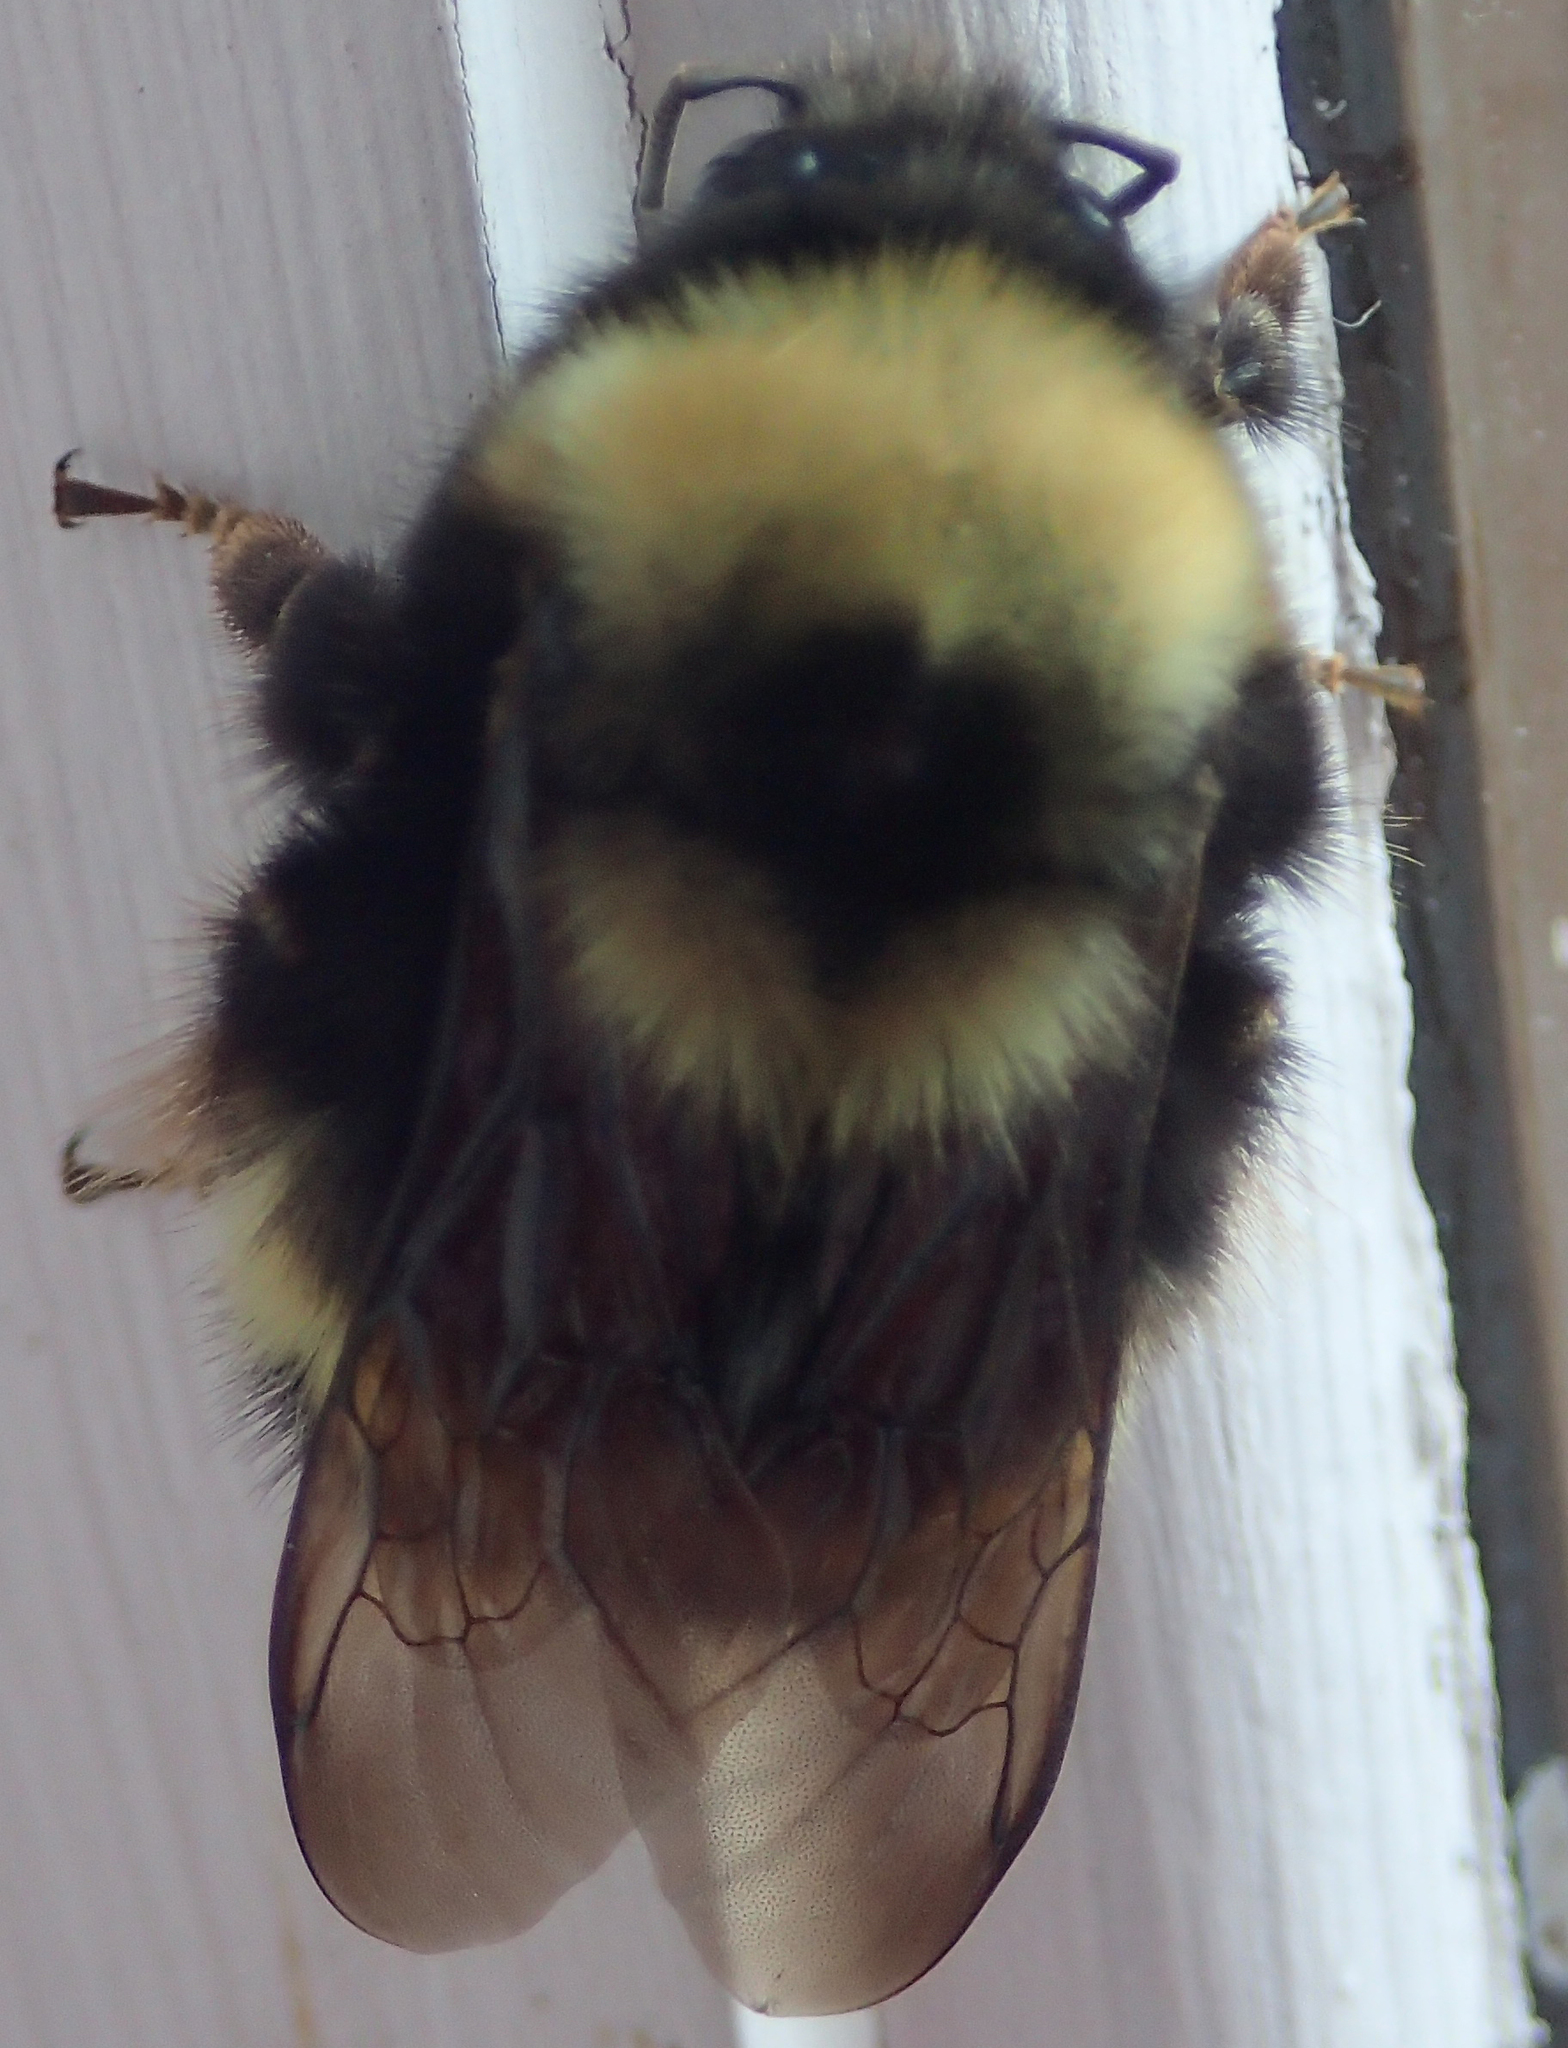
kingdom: Animalia
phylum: Arthropoda
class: Insecta
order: Hymenoptera
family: Apidae
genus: Bombus
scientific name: Bombus mckayi
